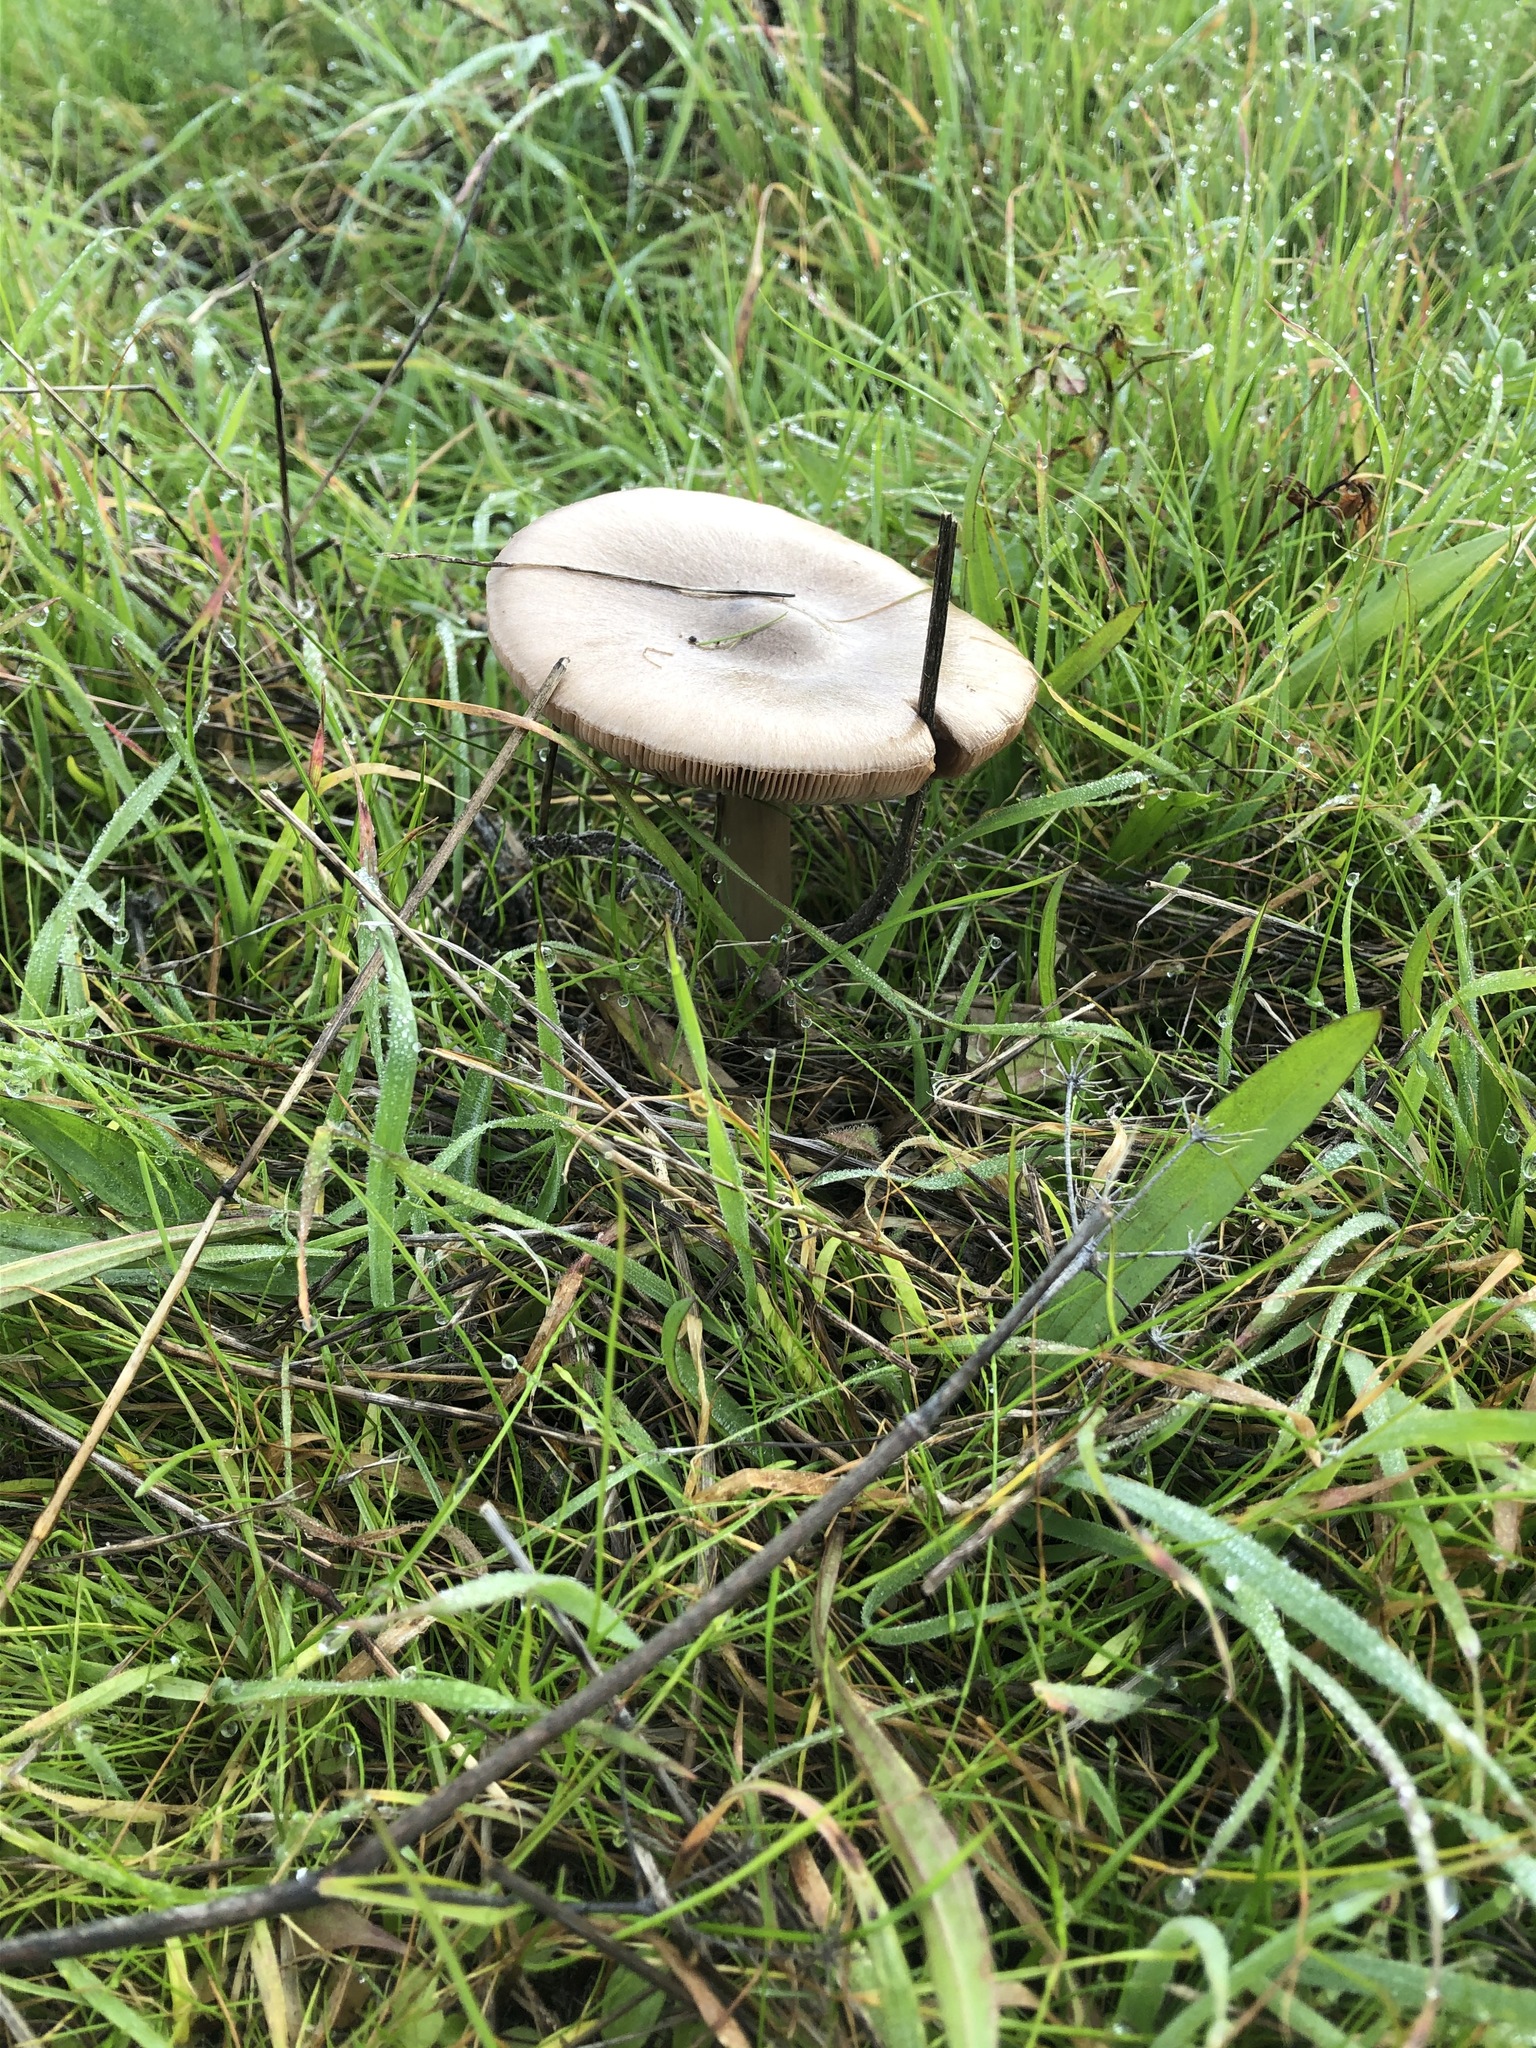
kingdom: Fungi
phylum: Basidiomycota
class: Agaricomycetes
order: Agaricales
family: Pluteaceae
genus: Volvopluteus
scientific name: Volvopluteus gloiocephalus
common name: Stubble rosegill
